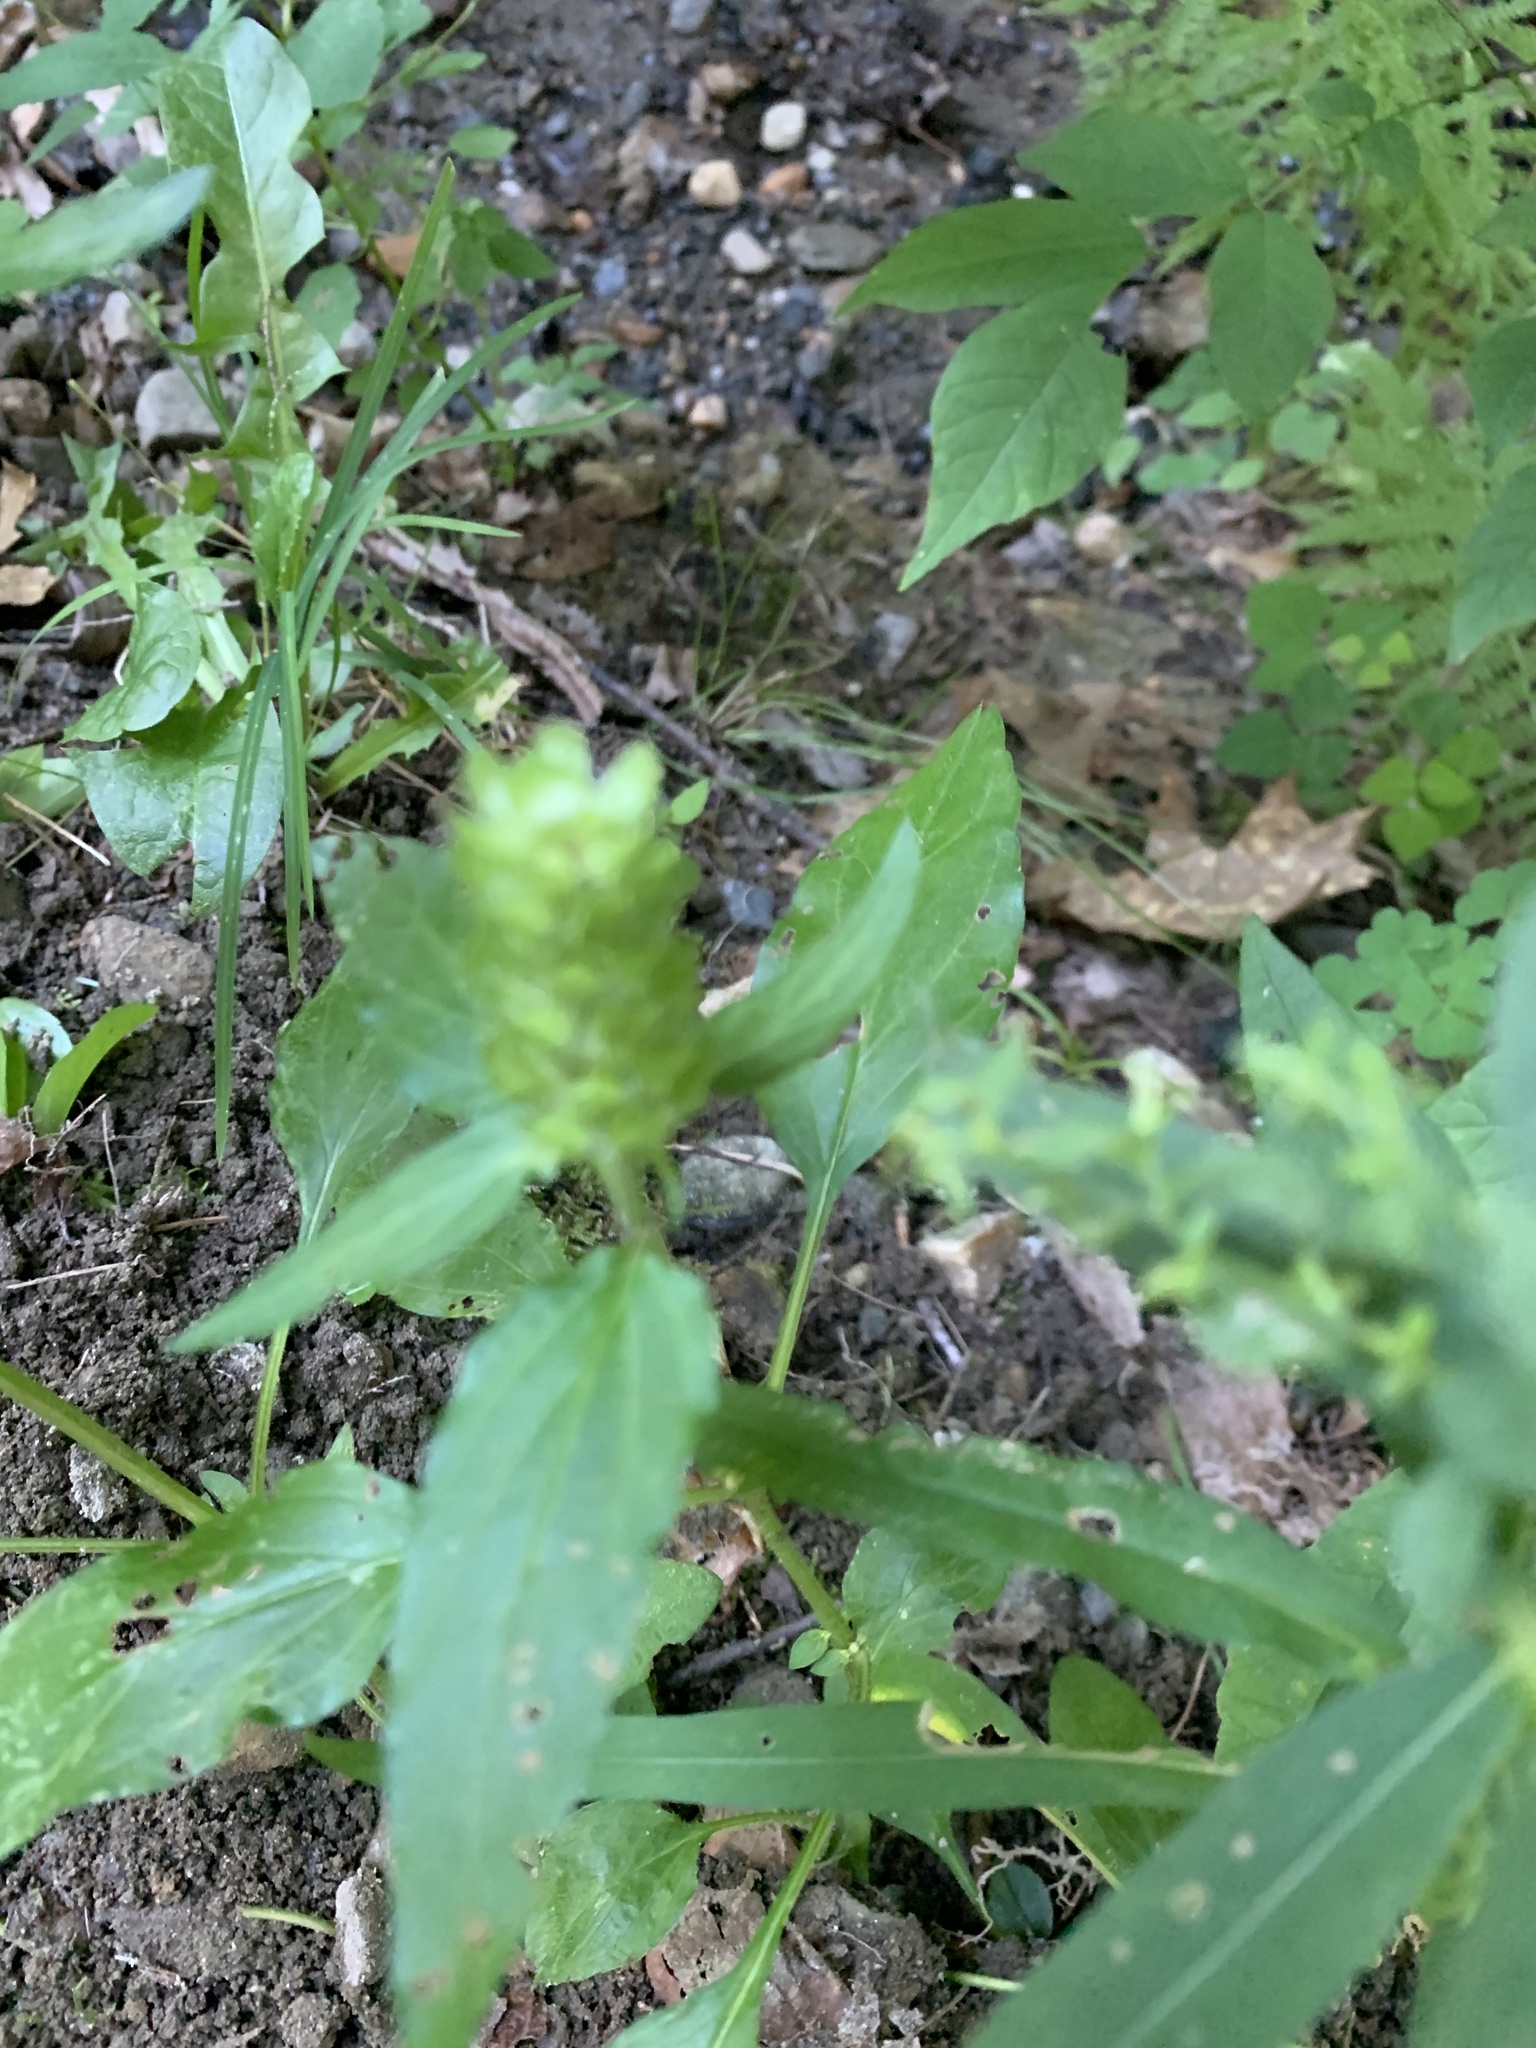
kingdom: Plantae
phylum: Tracheophyta
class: Magnoliopsida
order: Lamiales
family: Lamiaceae
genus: Prunella
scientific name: Prunella vulgaris
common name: Heal-all
